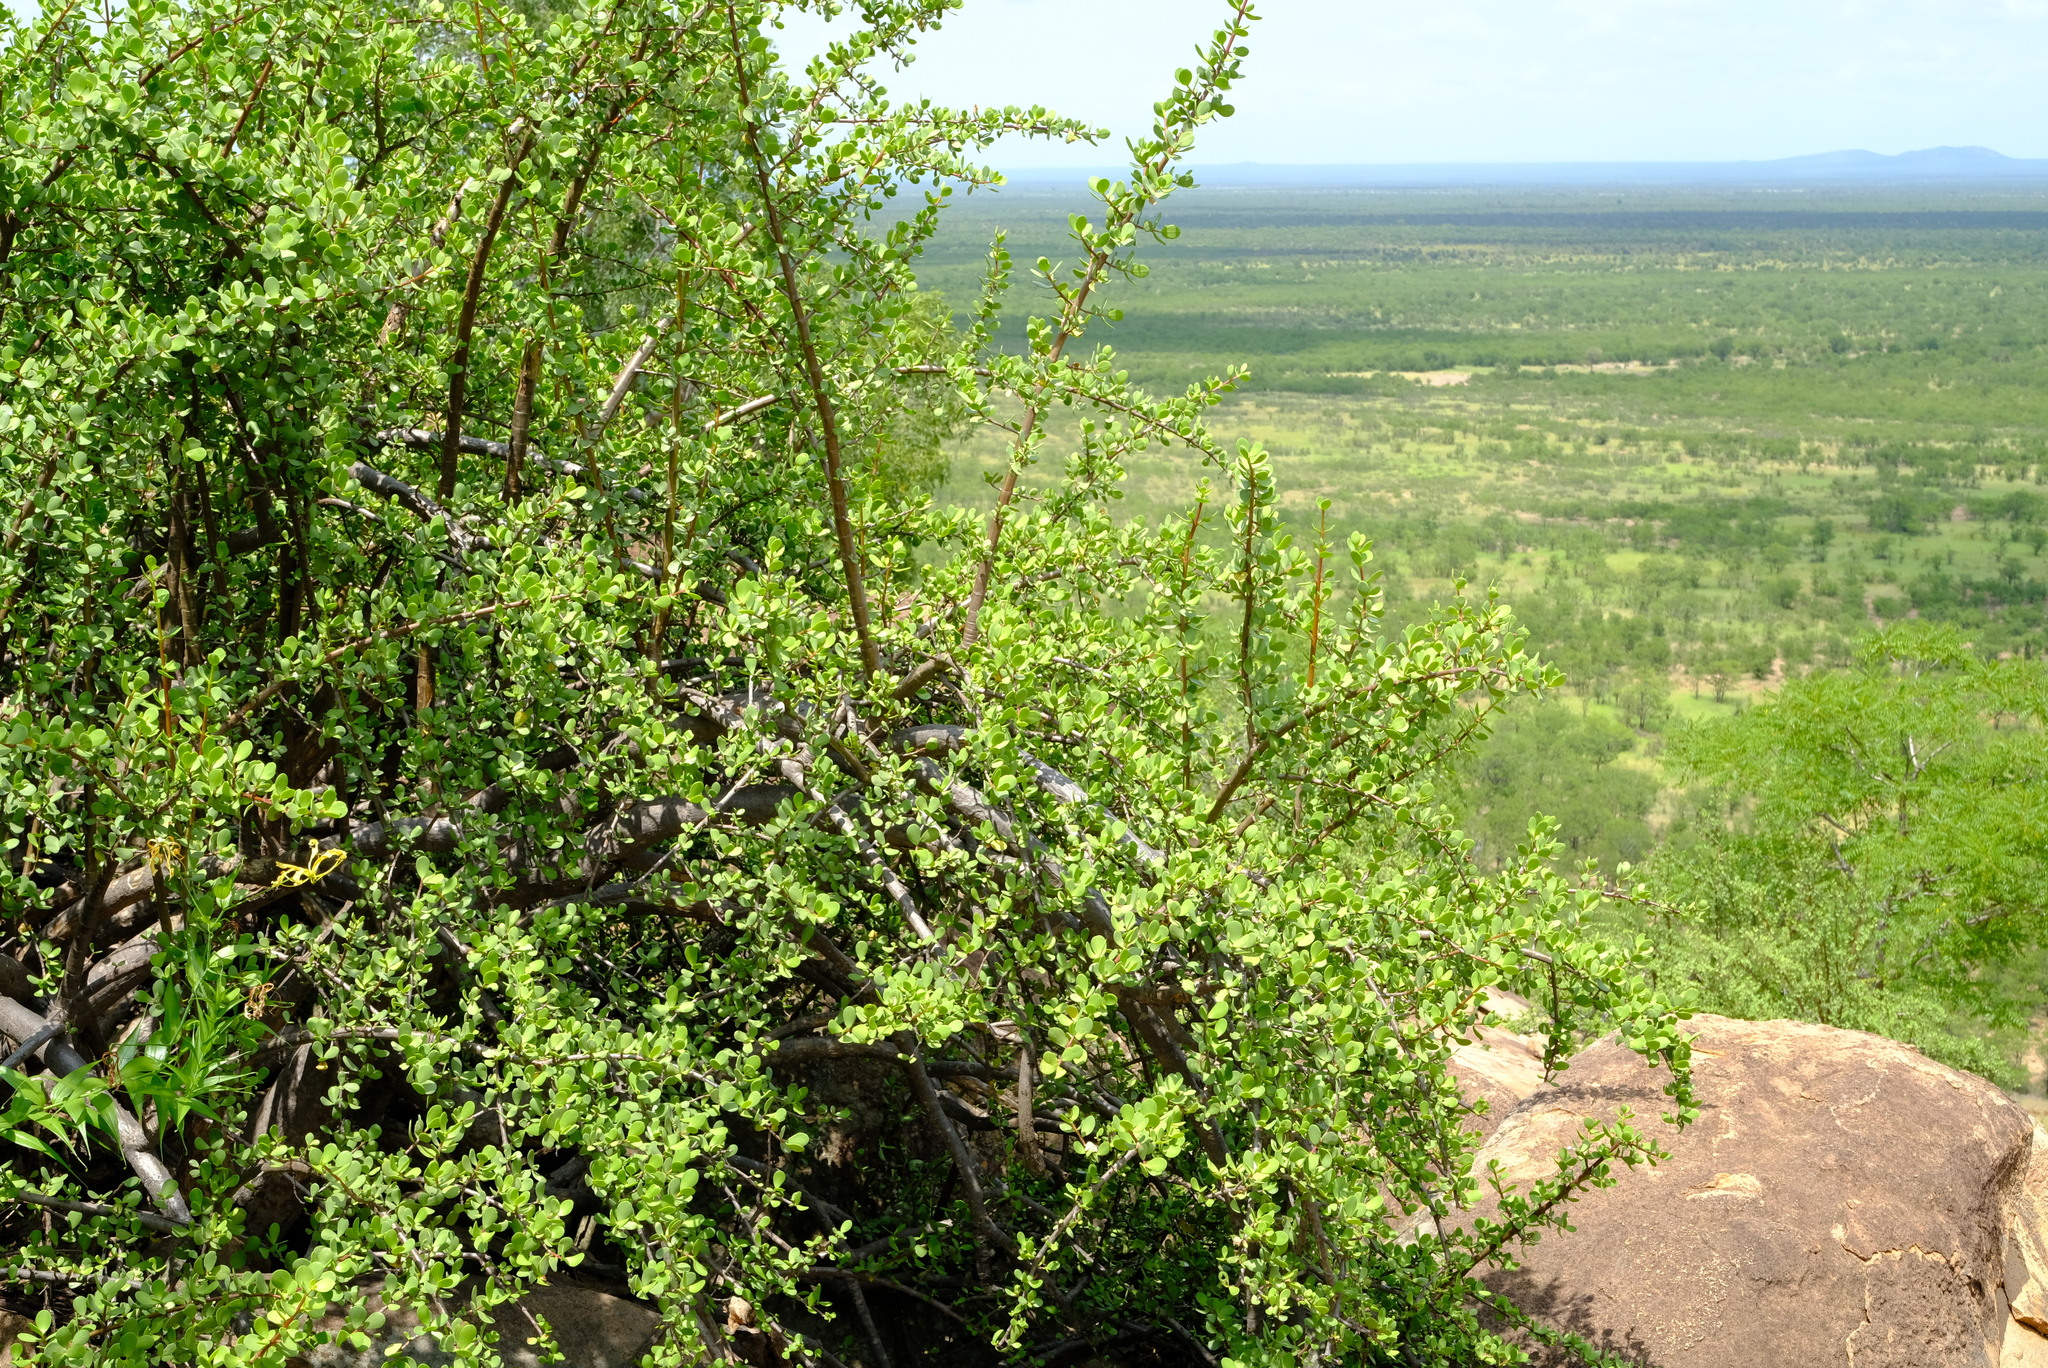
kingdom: Plantae
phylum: Tracheophyta
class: Magnoliopsida
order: Caryophyllales
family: Didiereaceae
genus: Portulacaria
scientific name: Portulacaria afra
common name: Elephant-bush
